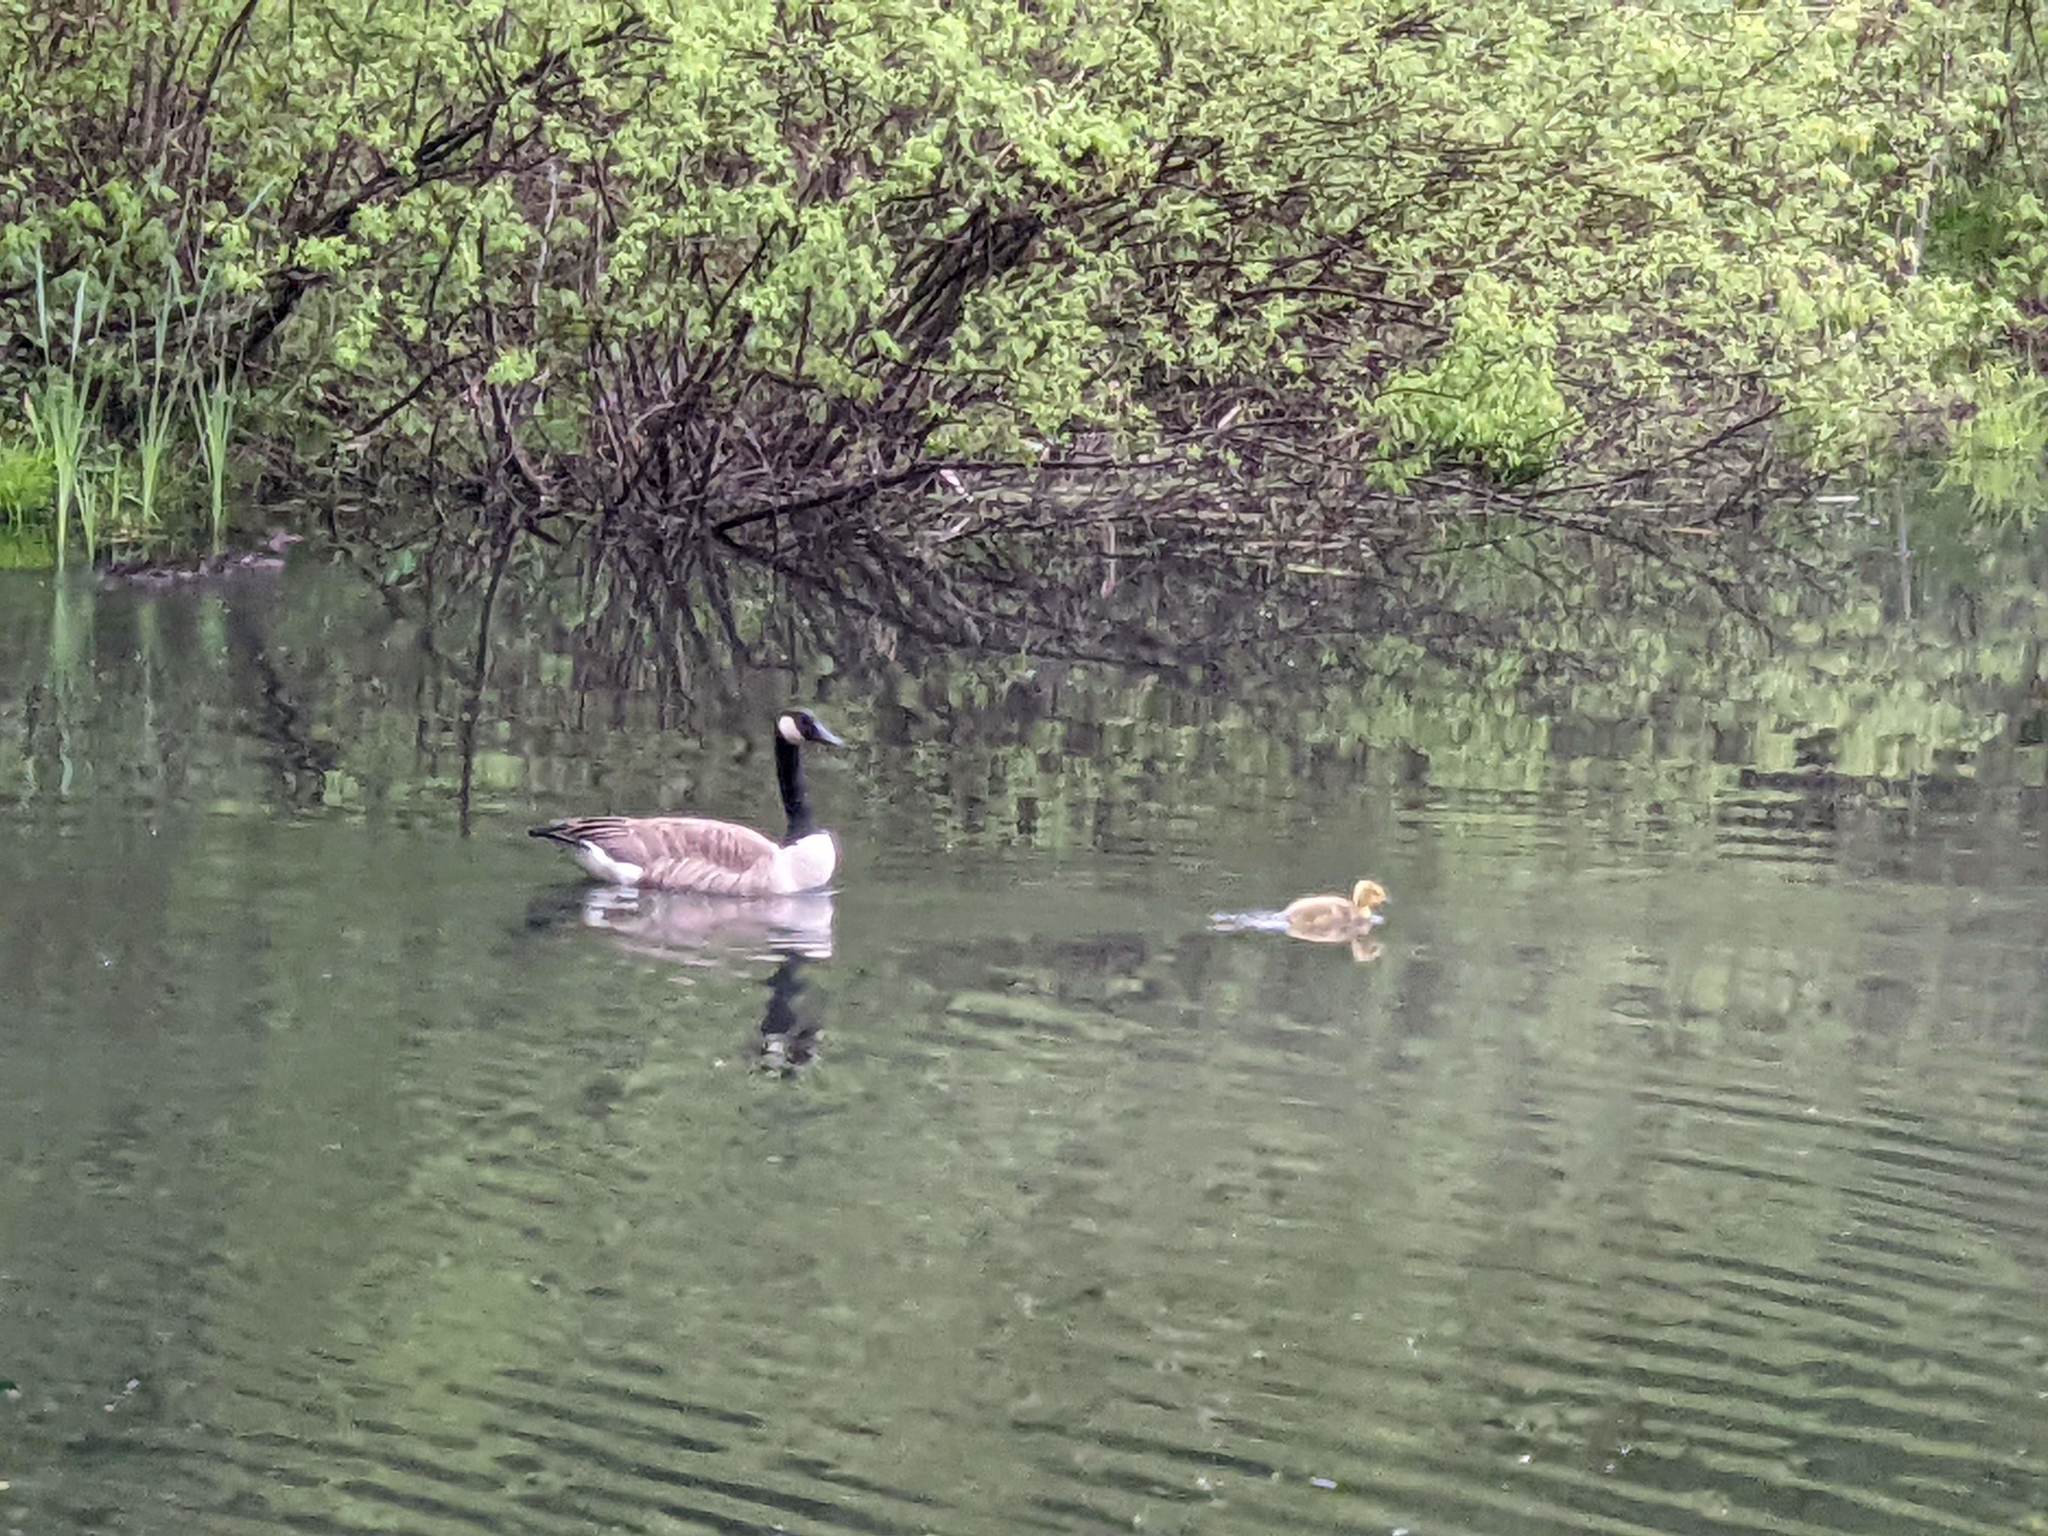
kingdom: Animalia
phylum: Chordata
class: Aves
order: Anseriformes
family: Anatidae
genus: Branta
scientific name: Branta canadensis
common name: Canada goose
